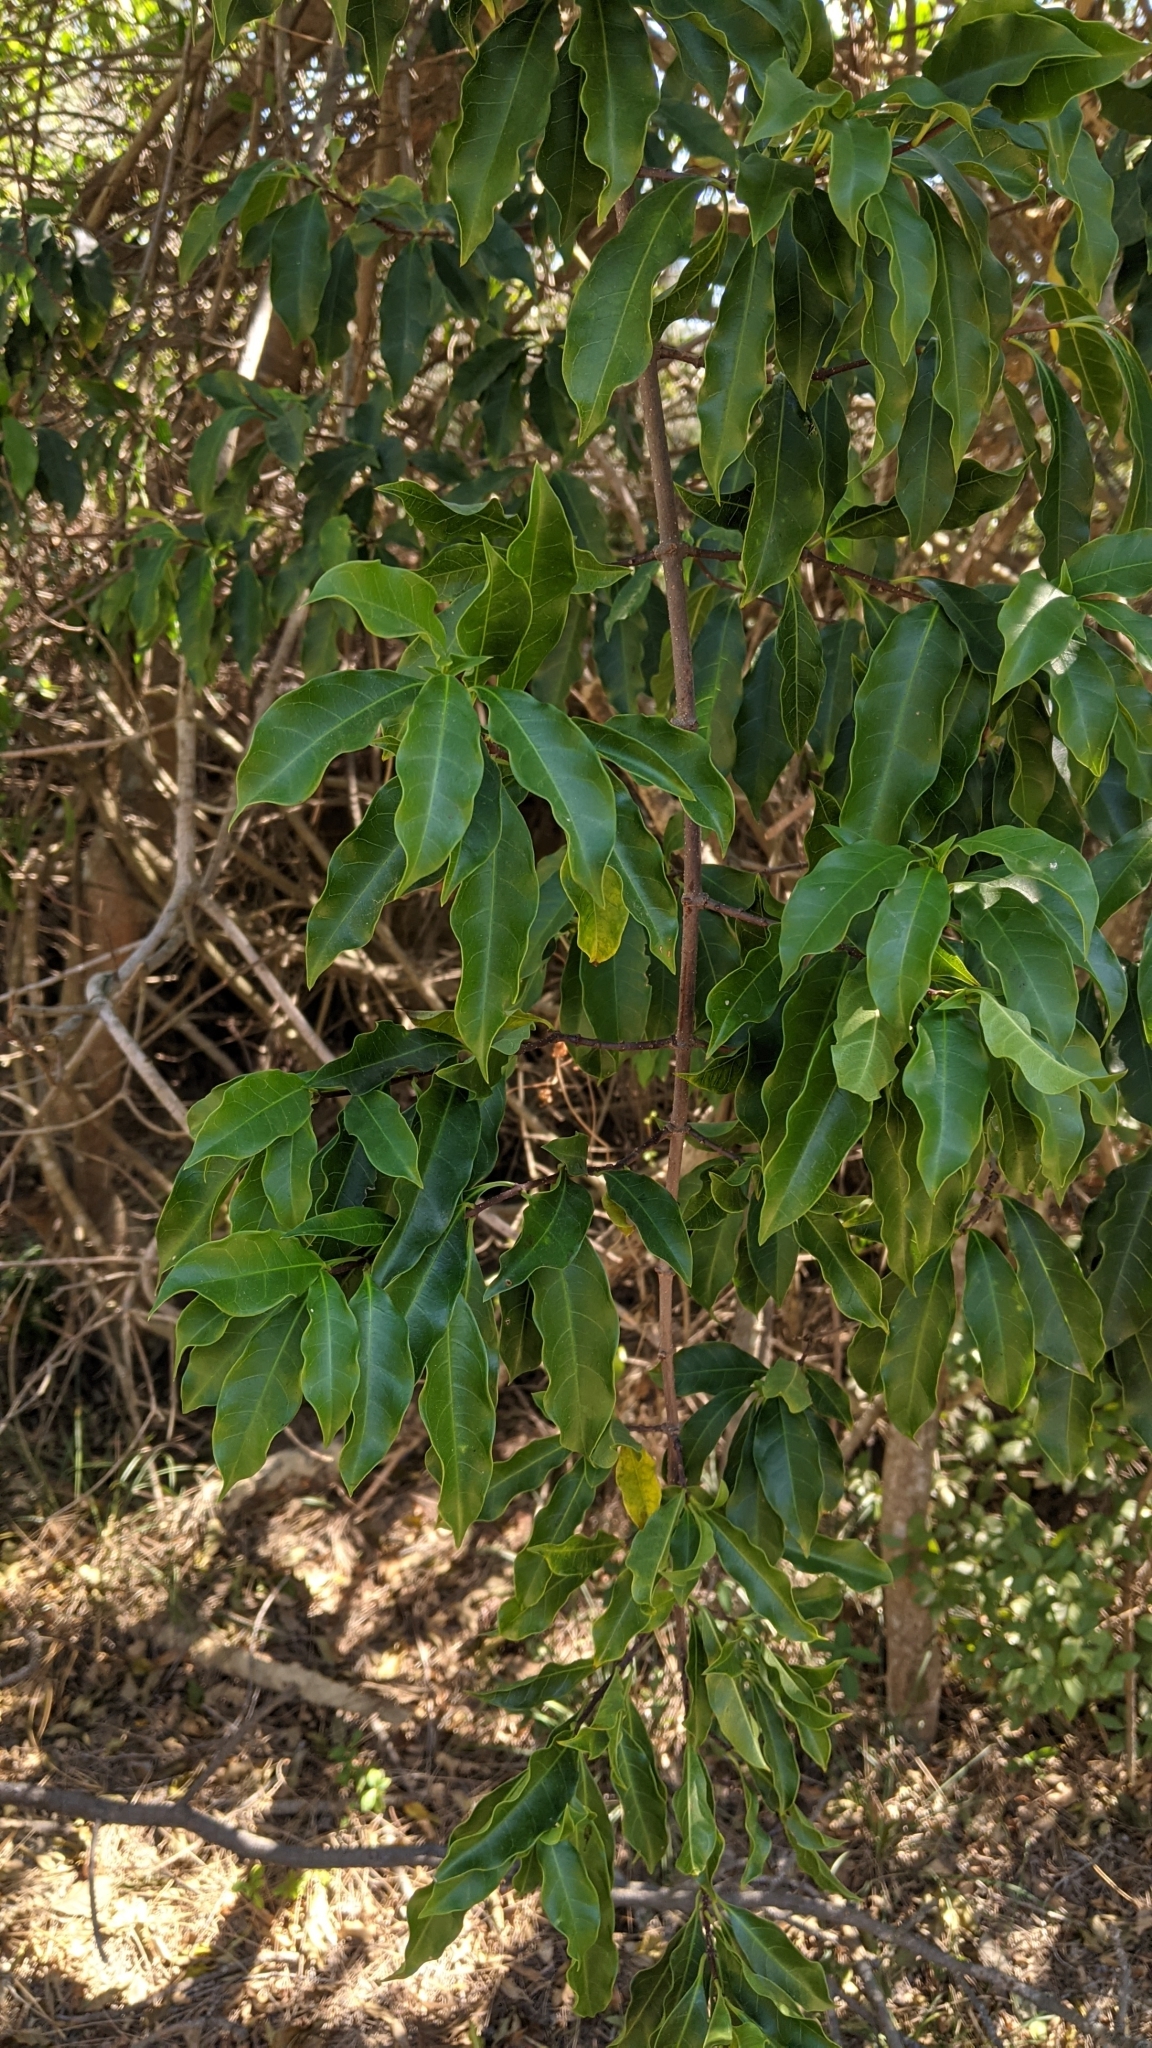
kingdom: Plantae
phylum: Tracheophyta
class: Magnoliopsida
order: Gentianales
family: Apocynaceae
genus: Strophanthus
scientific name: Strophanthus divaricatus
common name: Goat-horns
